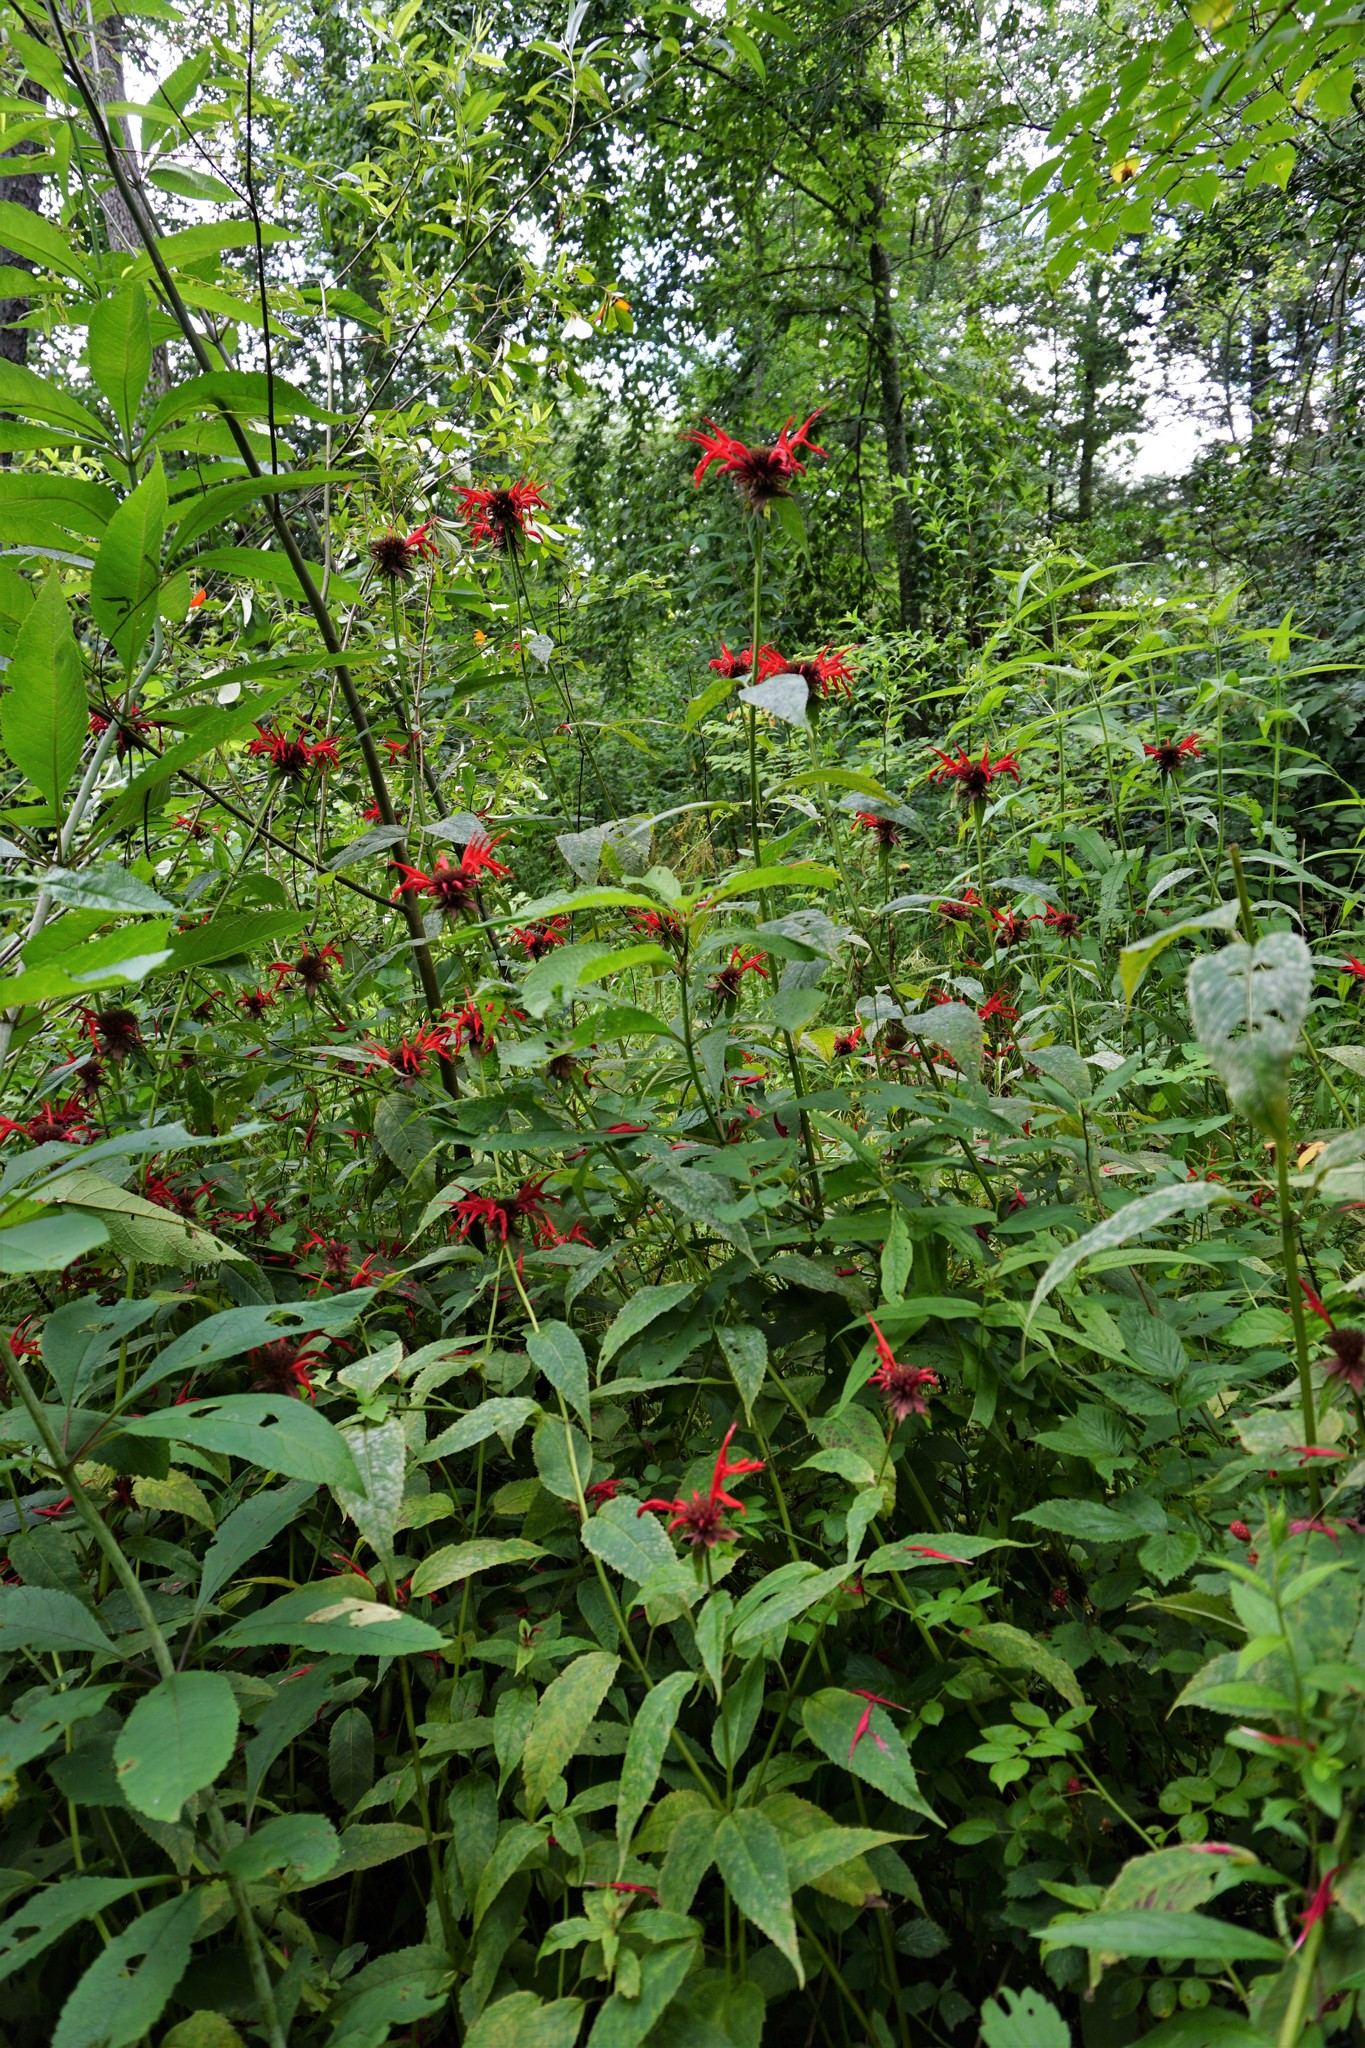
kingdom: Plantae
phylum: Tracheophyta
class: Magnoliopsida
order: Lamiales
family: Lamiaceae
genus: Monarda
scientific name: Monarda didyma
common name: Beebalm
